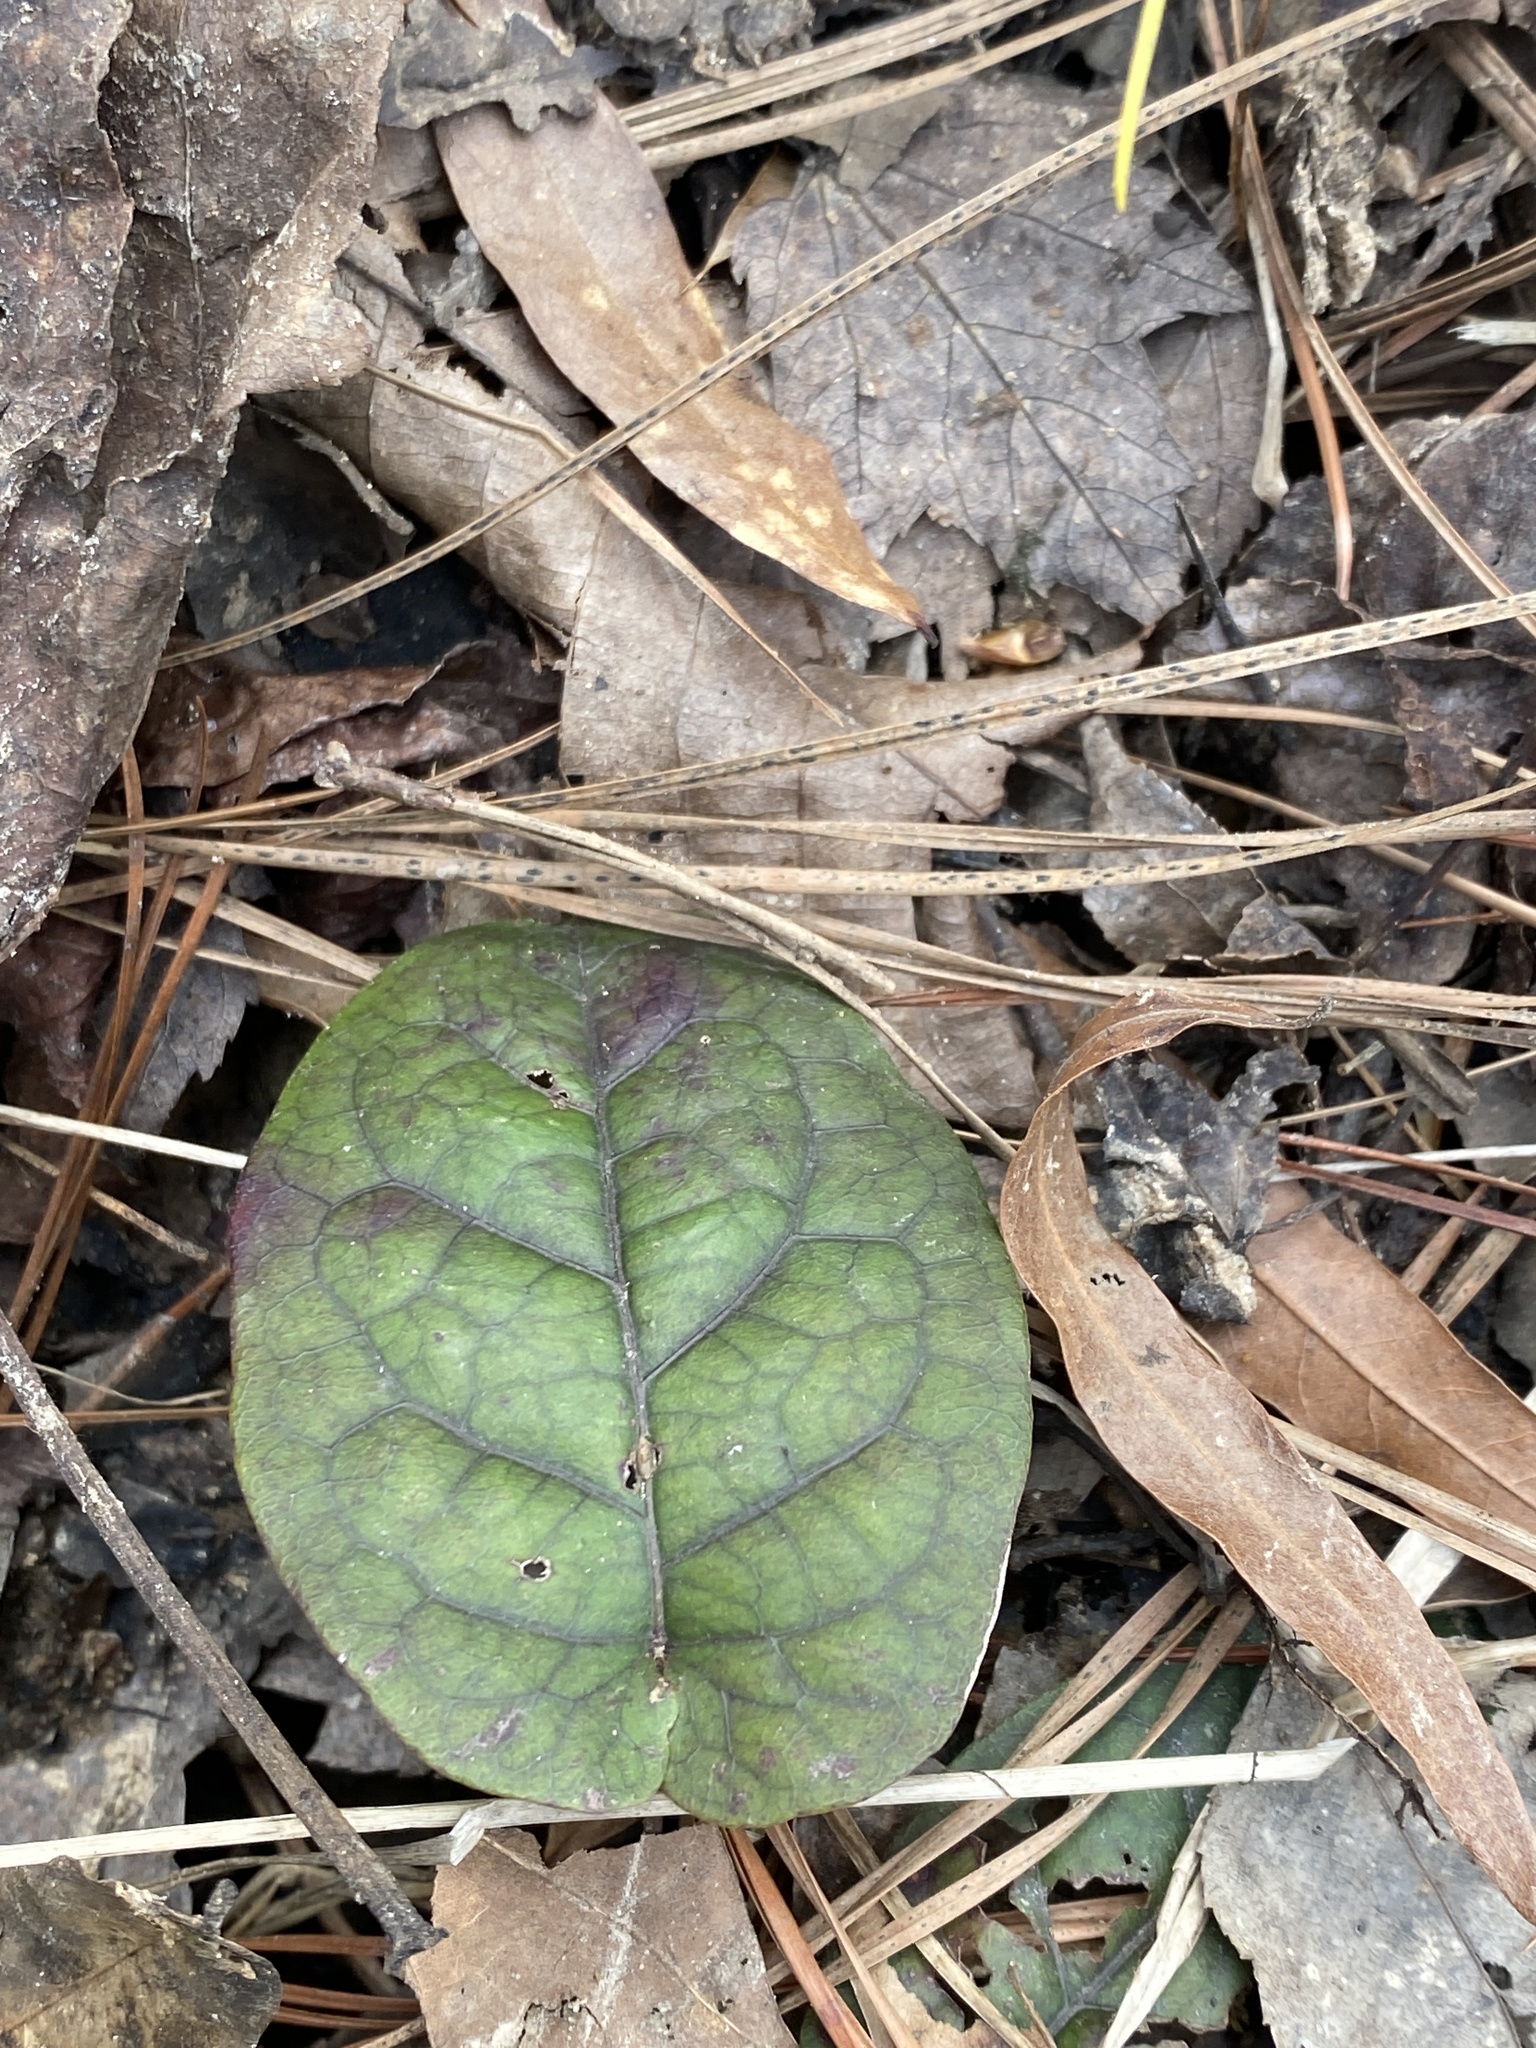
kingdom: Plantae
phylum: Tracheophyta
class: Magnoliopsida
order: Lamiales
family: Bignoniaceae
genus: Bignonia
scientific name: Bignonia capreolata
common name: Crossvine
